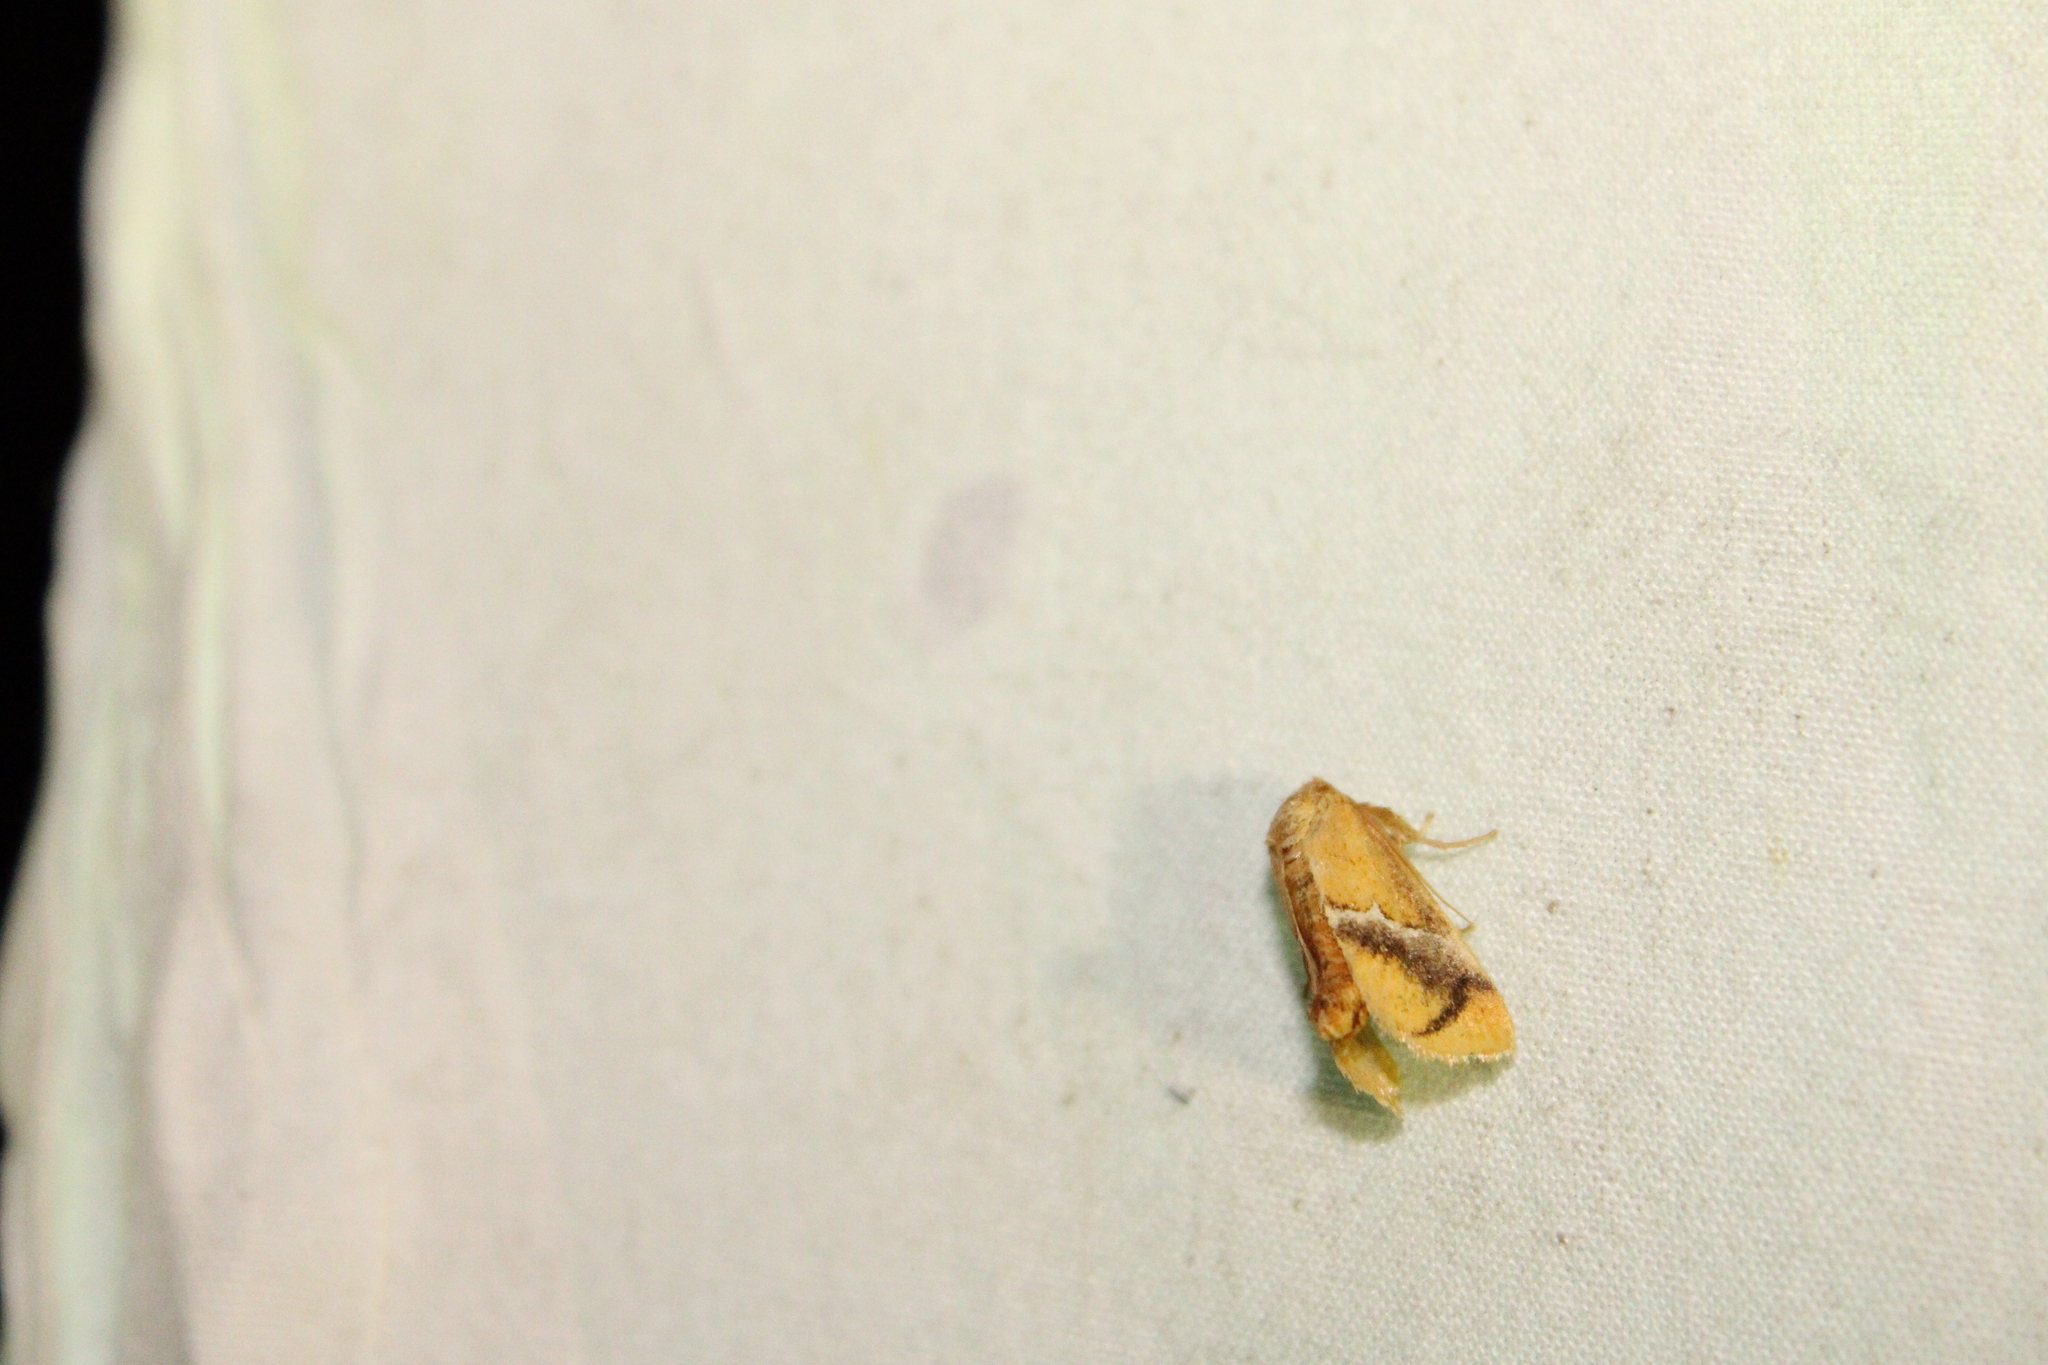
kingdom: Animalia
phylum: Arthropoda
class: Insecta
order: Lepidoptera
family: Limacodidae
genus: Lithacodes
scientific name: Lithacodes fasciola
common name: Yellow-shouldered slug moth
